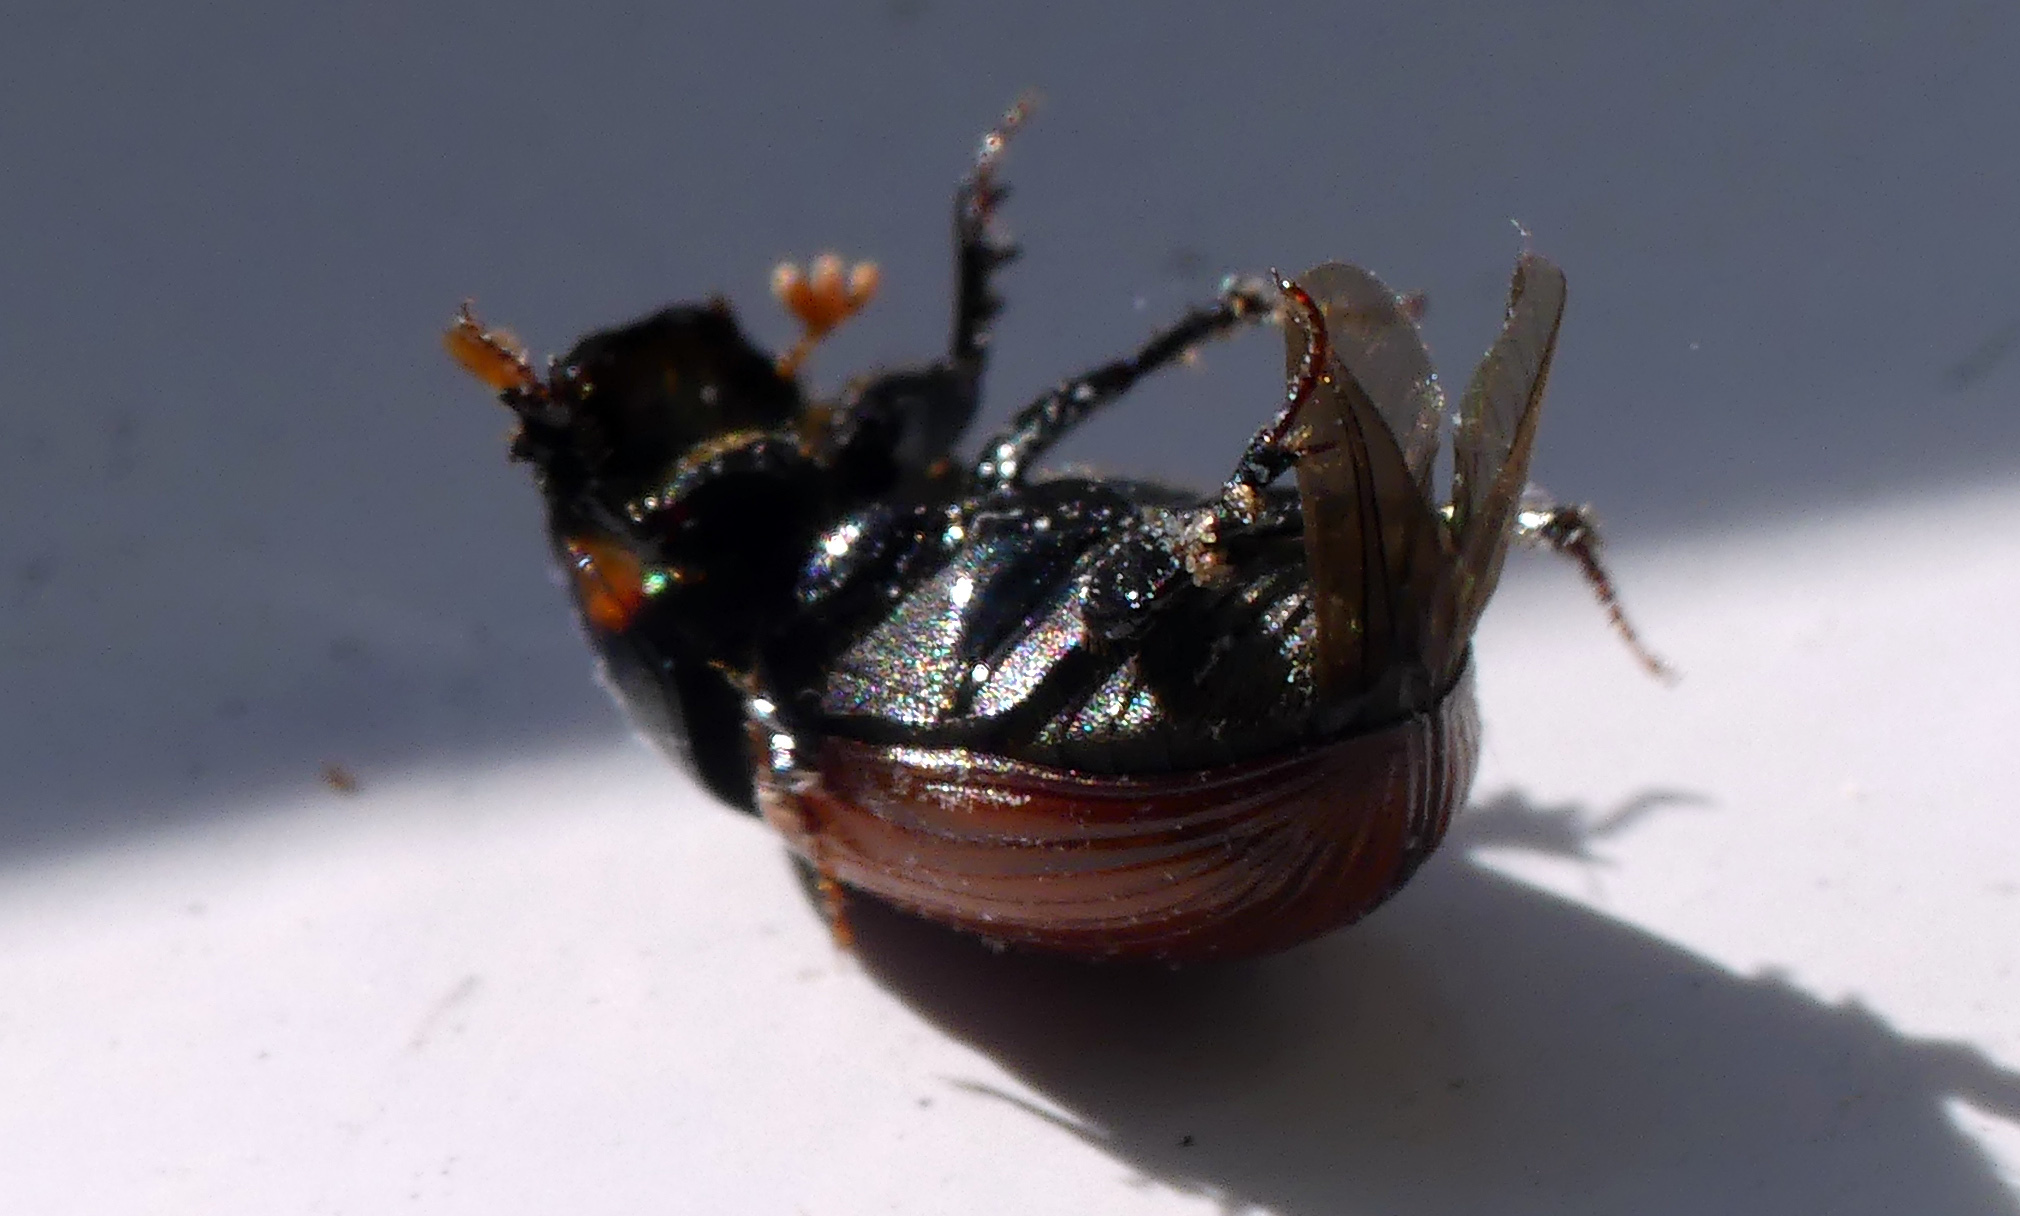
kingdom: Animalia
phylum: Arthropoda
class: Insecta
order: Coleoptera
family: Scarabaeidae
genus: Aphodius
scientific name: Aphodius pedellus
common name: Common dung beetle
